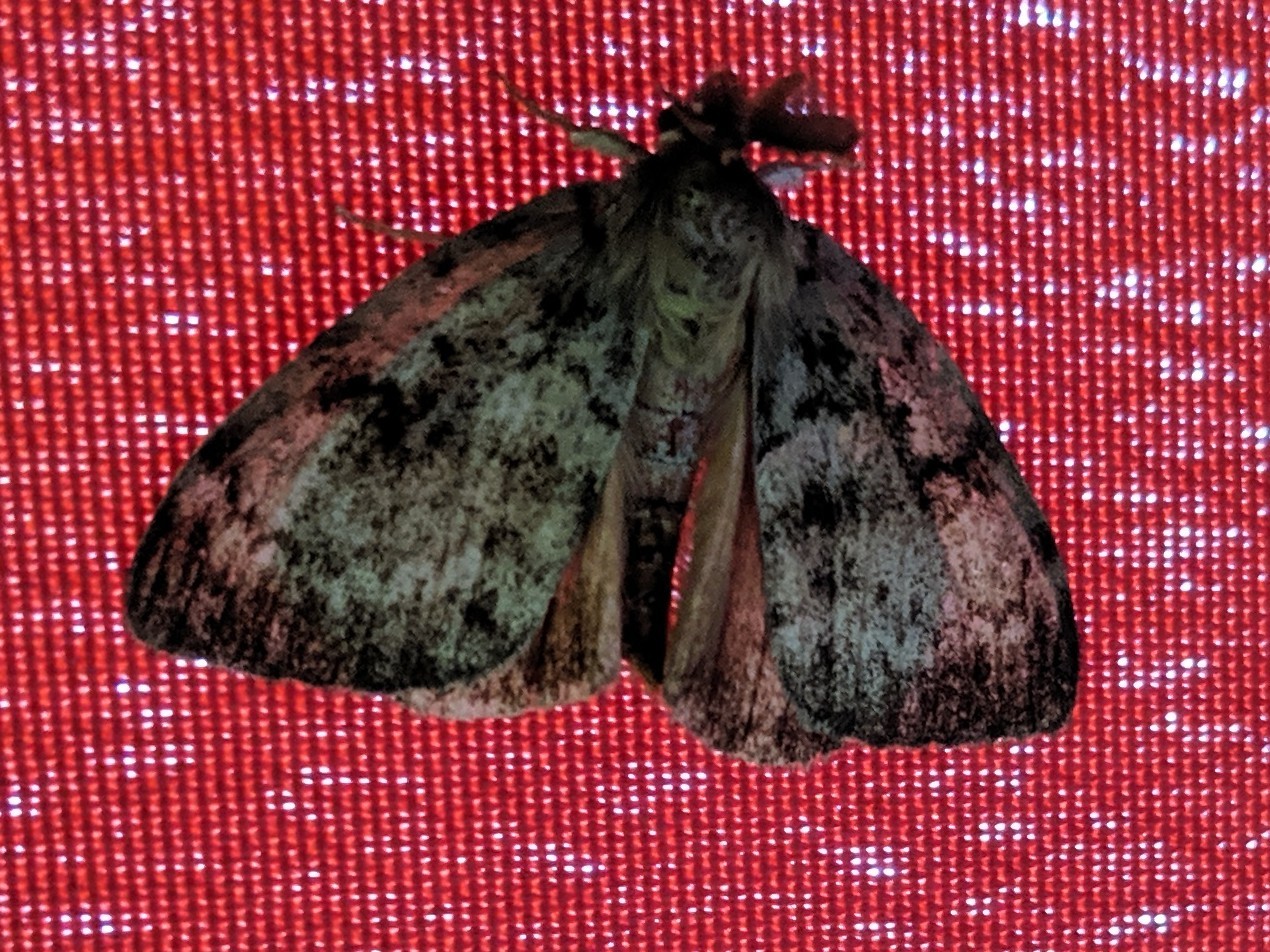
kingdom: Animalia
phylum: Arthropoda
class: Insecta
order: Lepidoptera
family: Erebidae
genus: Lymantria
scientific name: Lymantria dispar
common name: Gypsy moth
